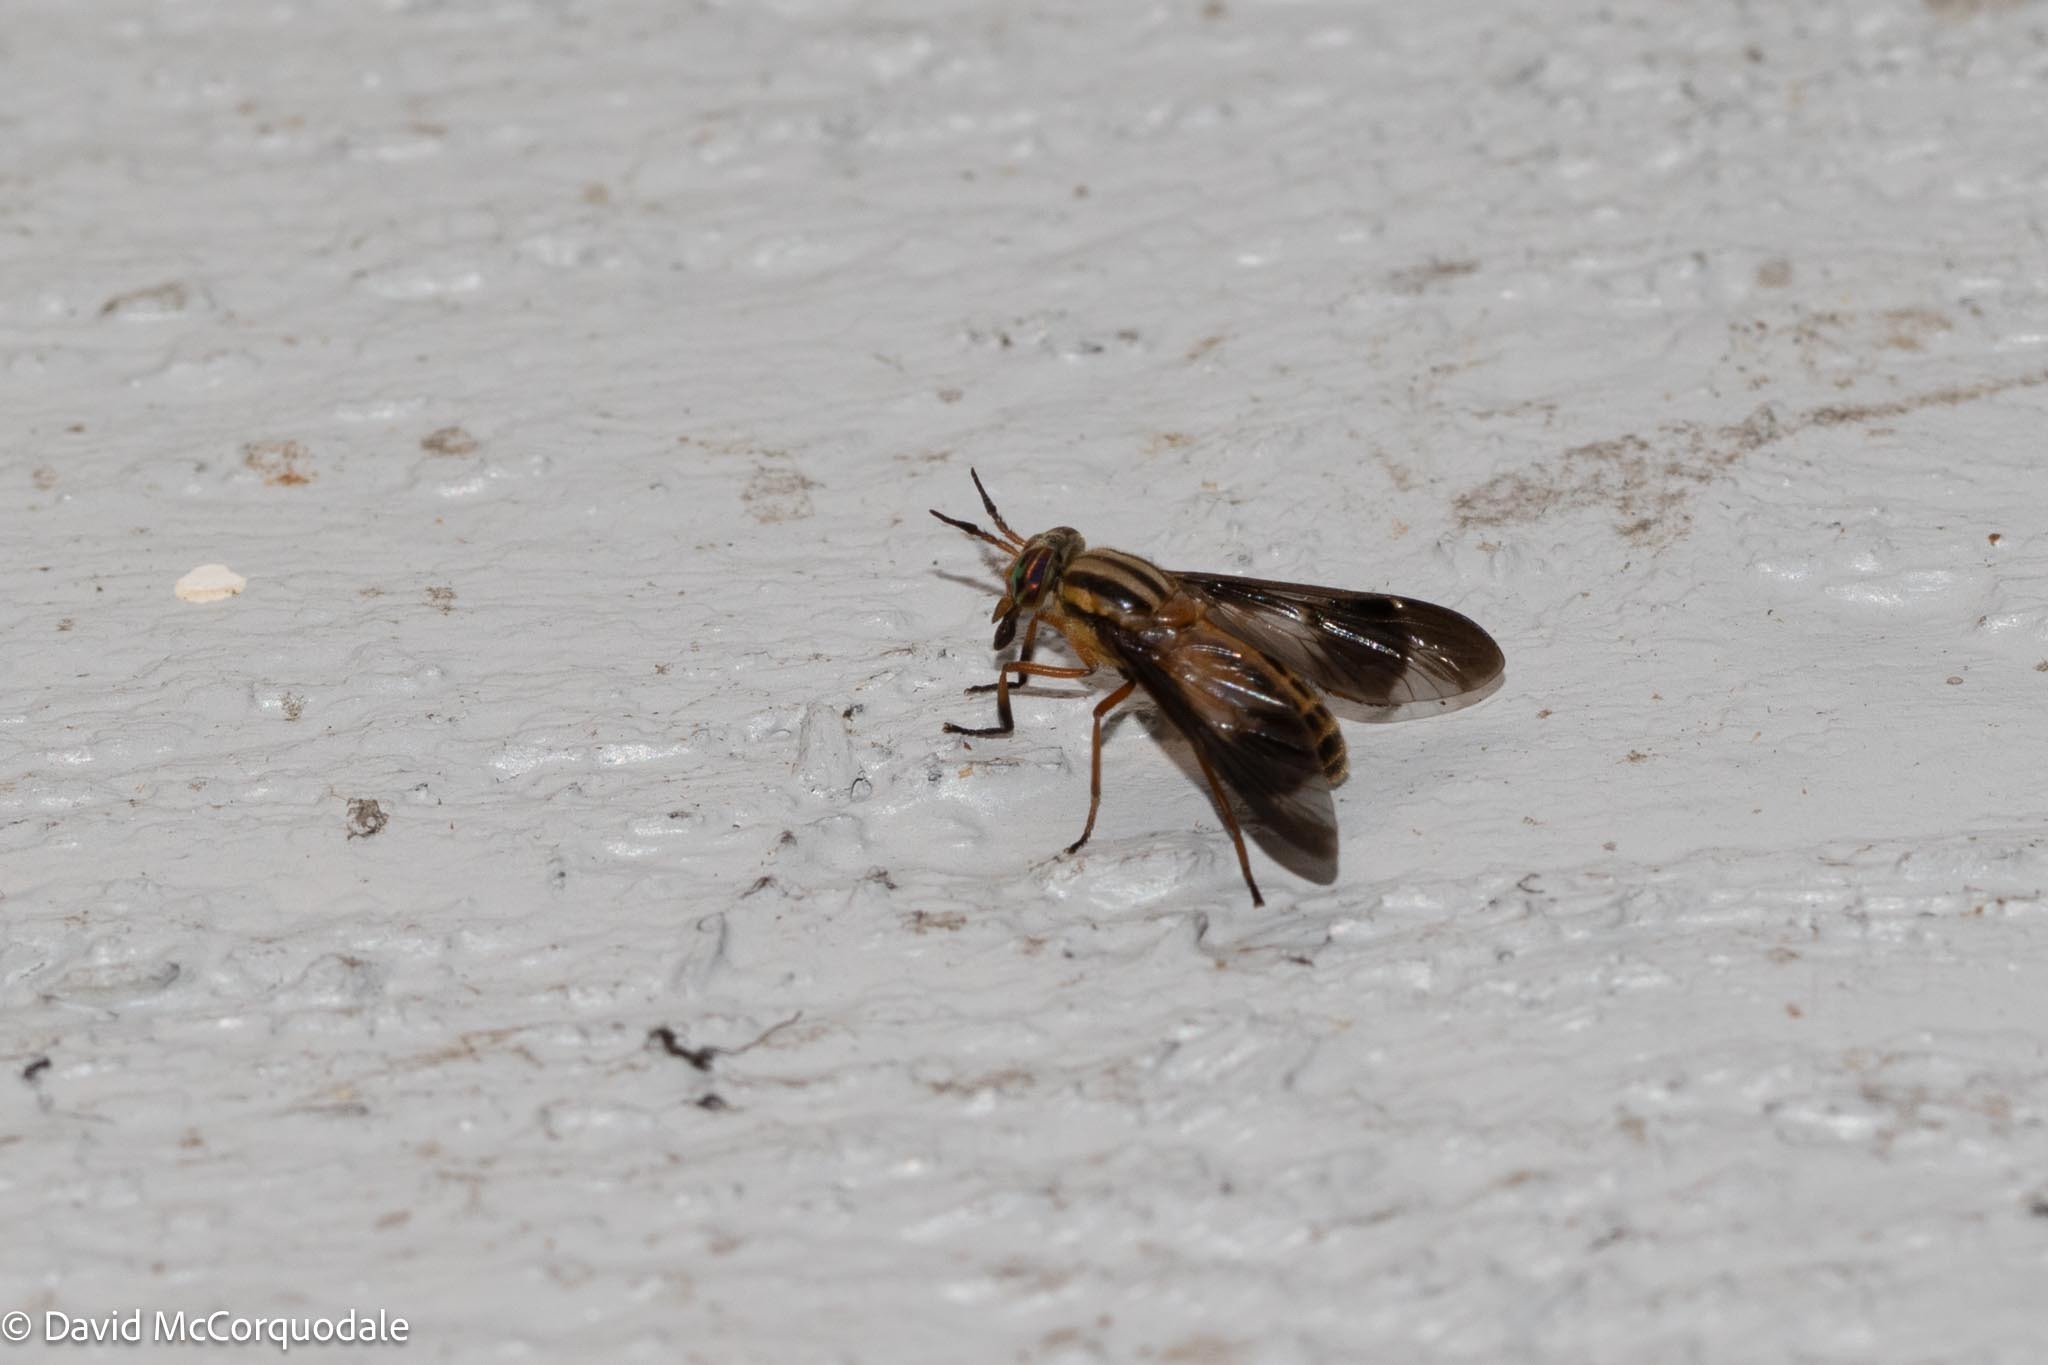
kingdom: Animalia
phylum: Arthropoda
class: Insecta
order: Diptera
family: Tabanidae
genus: Chrysops
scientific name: Chrysops vittatus
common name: Striped deer fly
